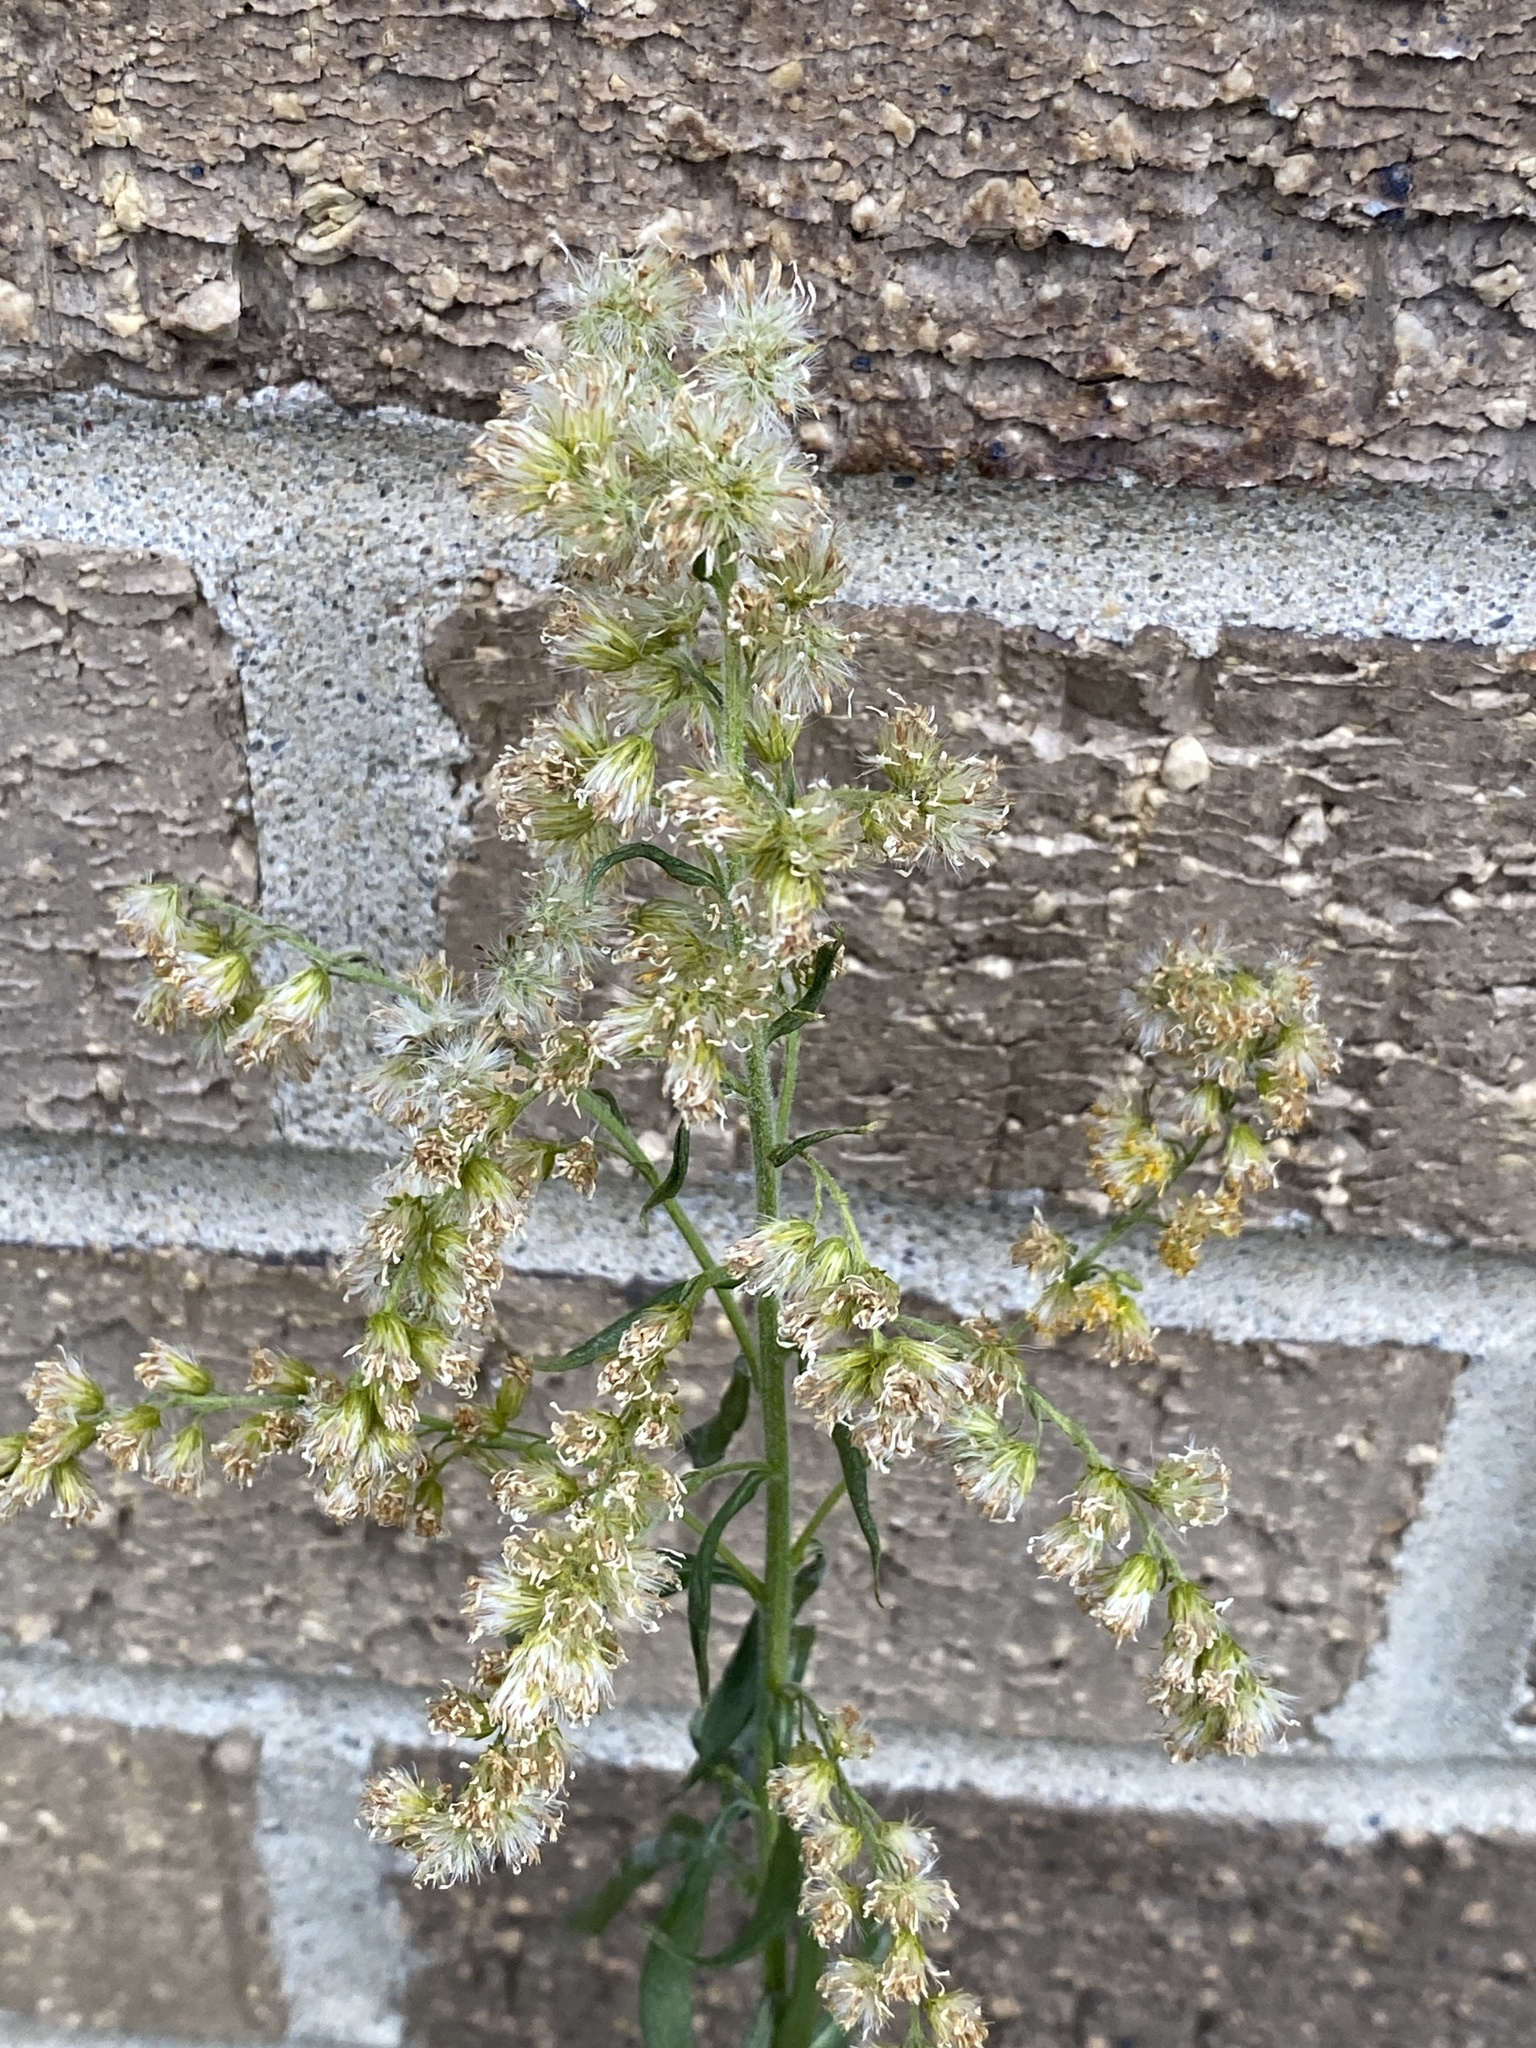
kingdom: Plantae
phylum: Tracheophyta
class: Magnoliopsida
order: Asterales
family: Asteraceae
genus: Solidago
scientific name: Solidago altissima
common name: Late goldenrod
